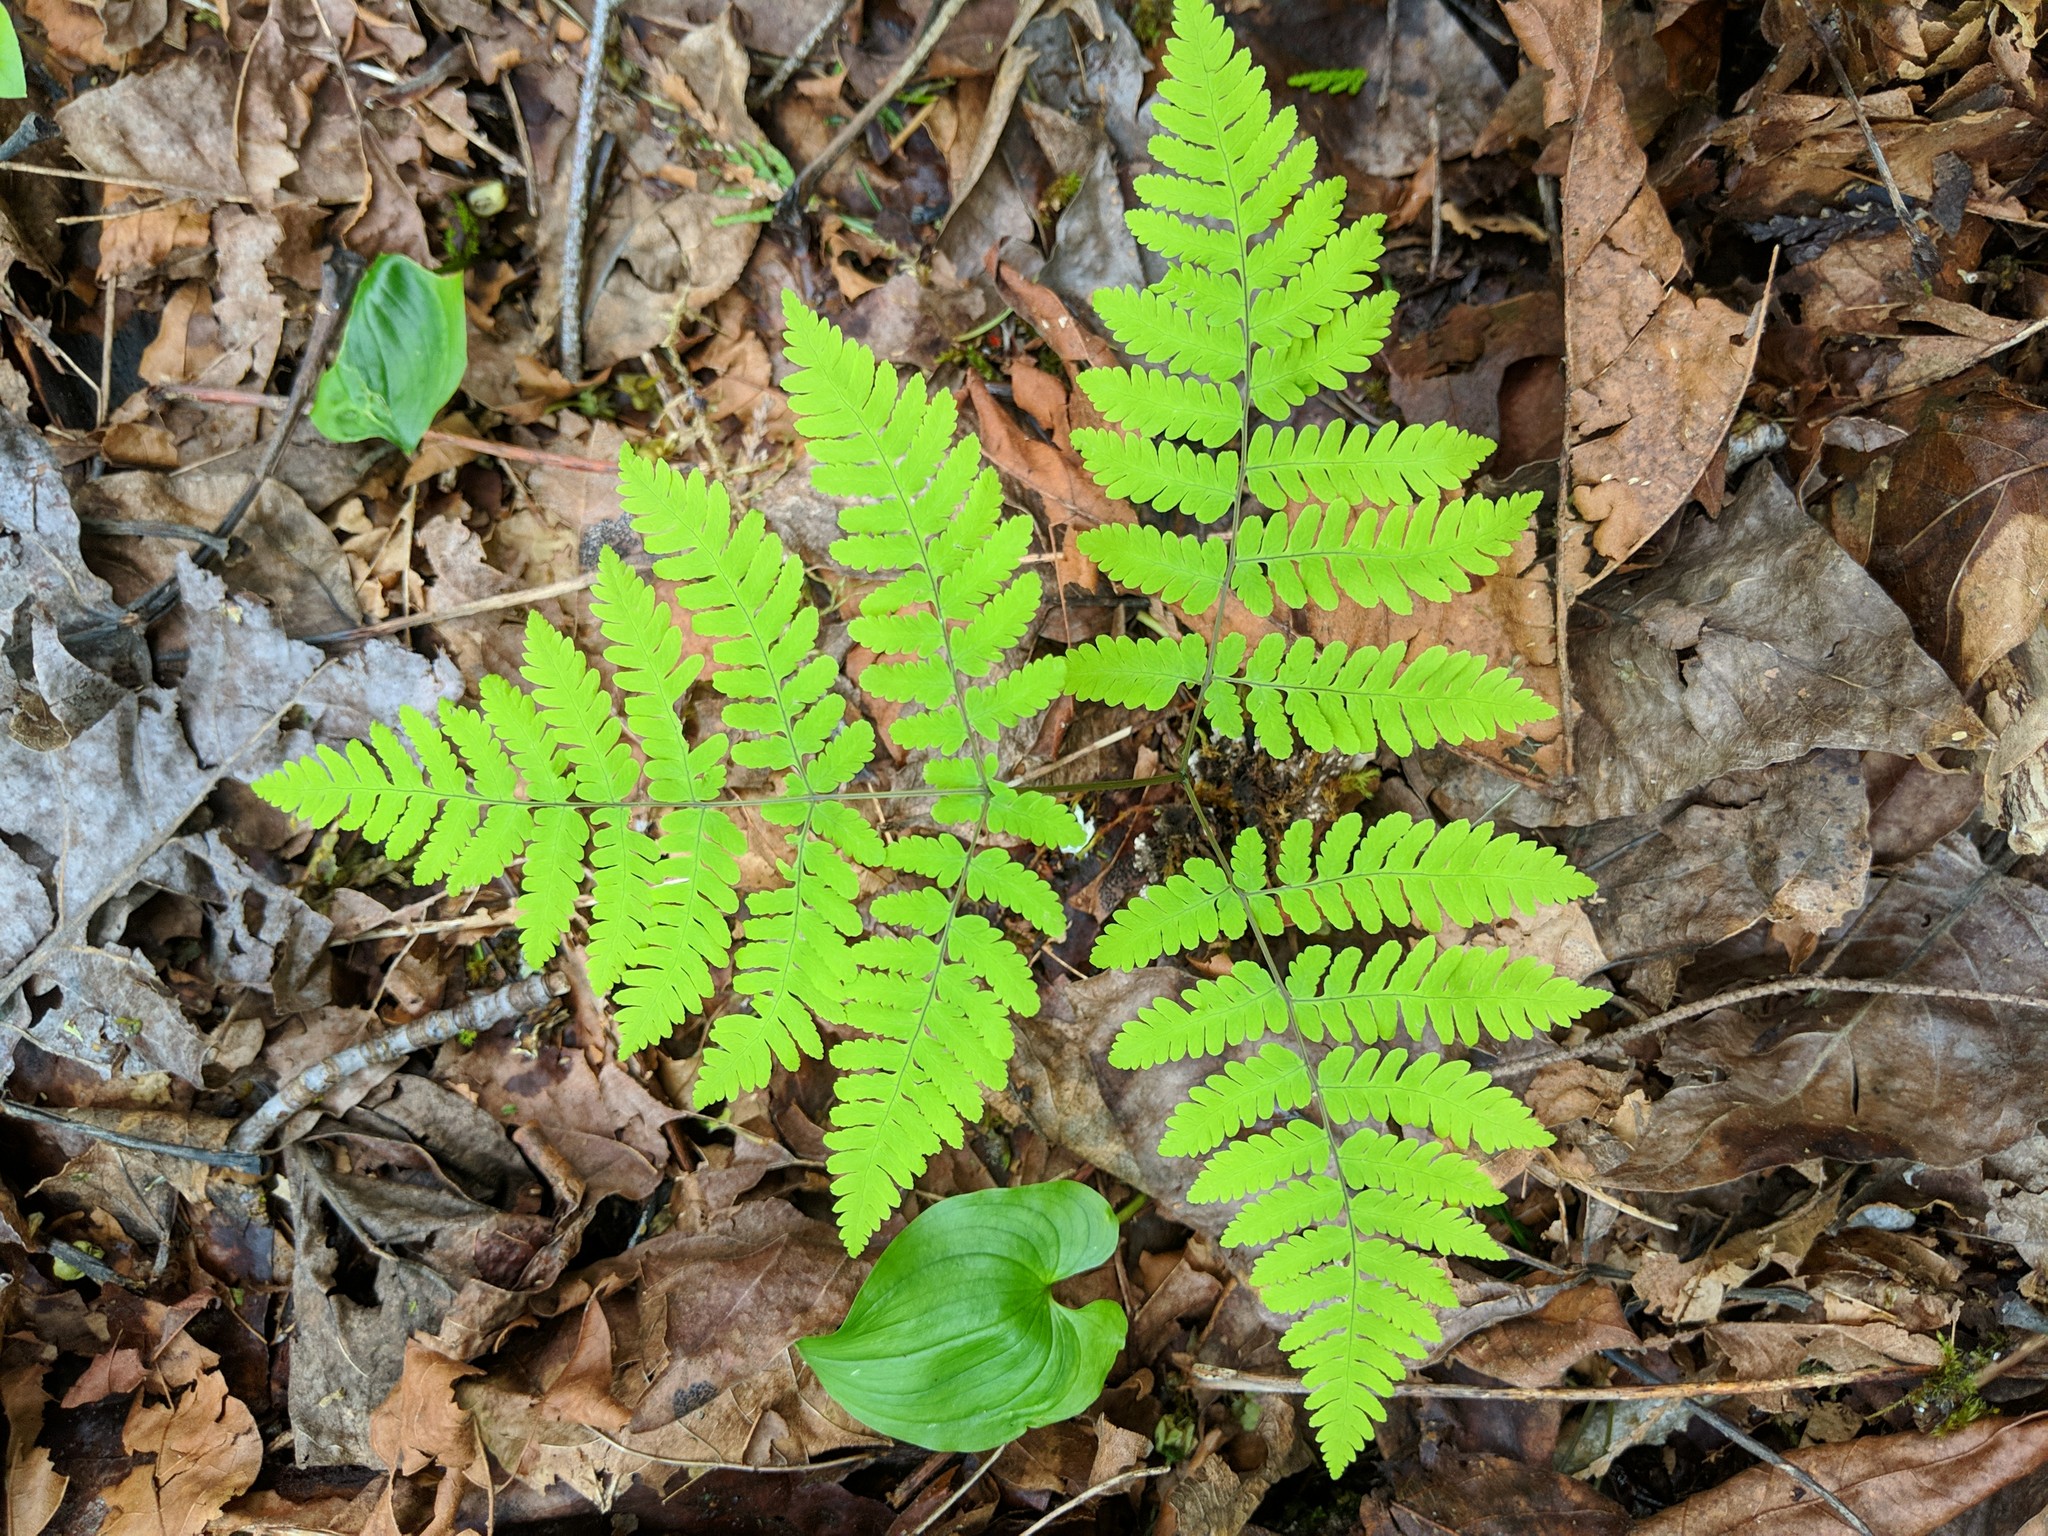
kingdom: Plantae
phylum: Tracheophyta
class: Polypodiopsida
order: Polypodiales
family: Cystopteridaceae
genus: Gymnocarpium
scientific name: Gymnocarpium disjunctum
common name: Western oak fern
